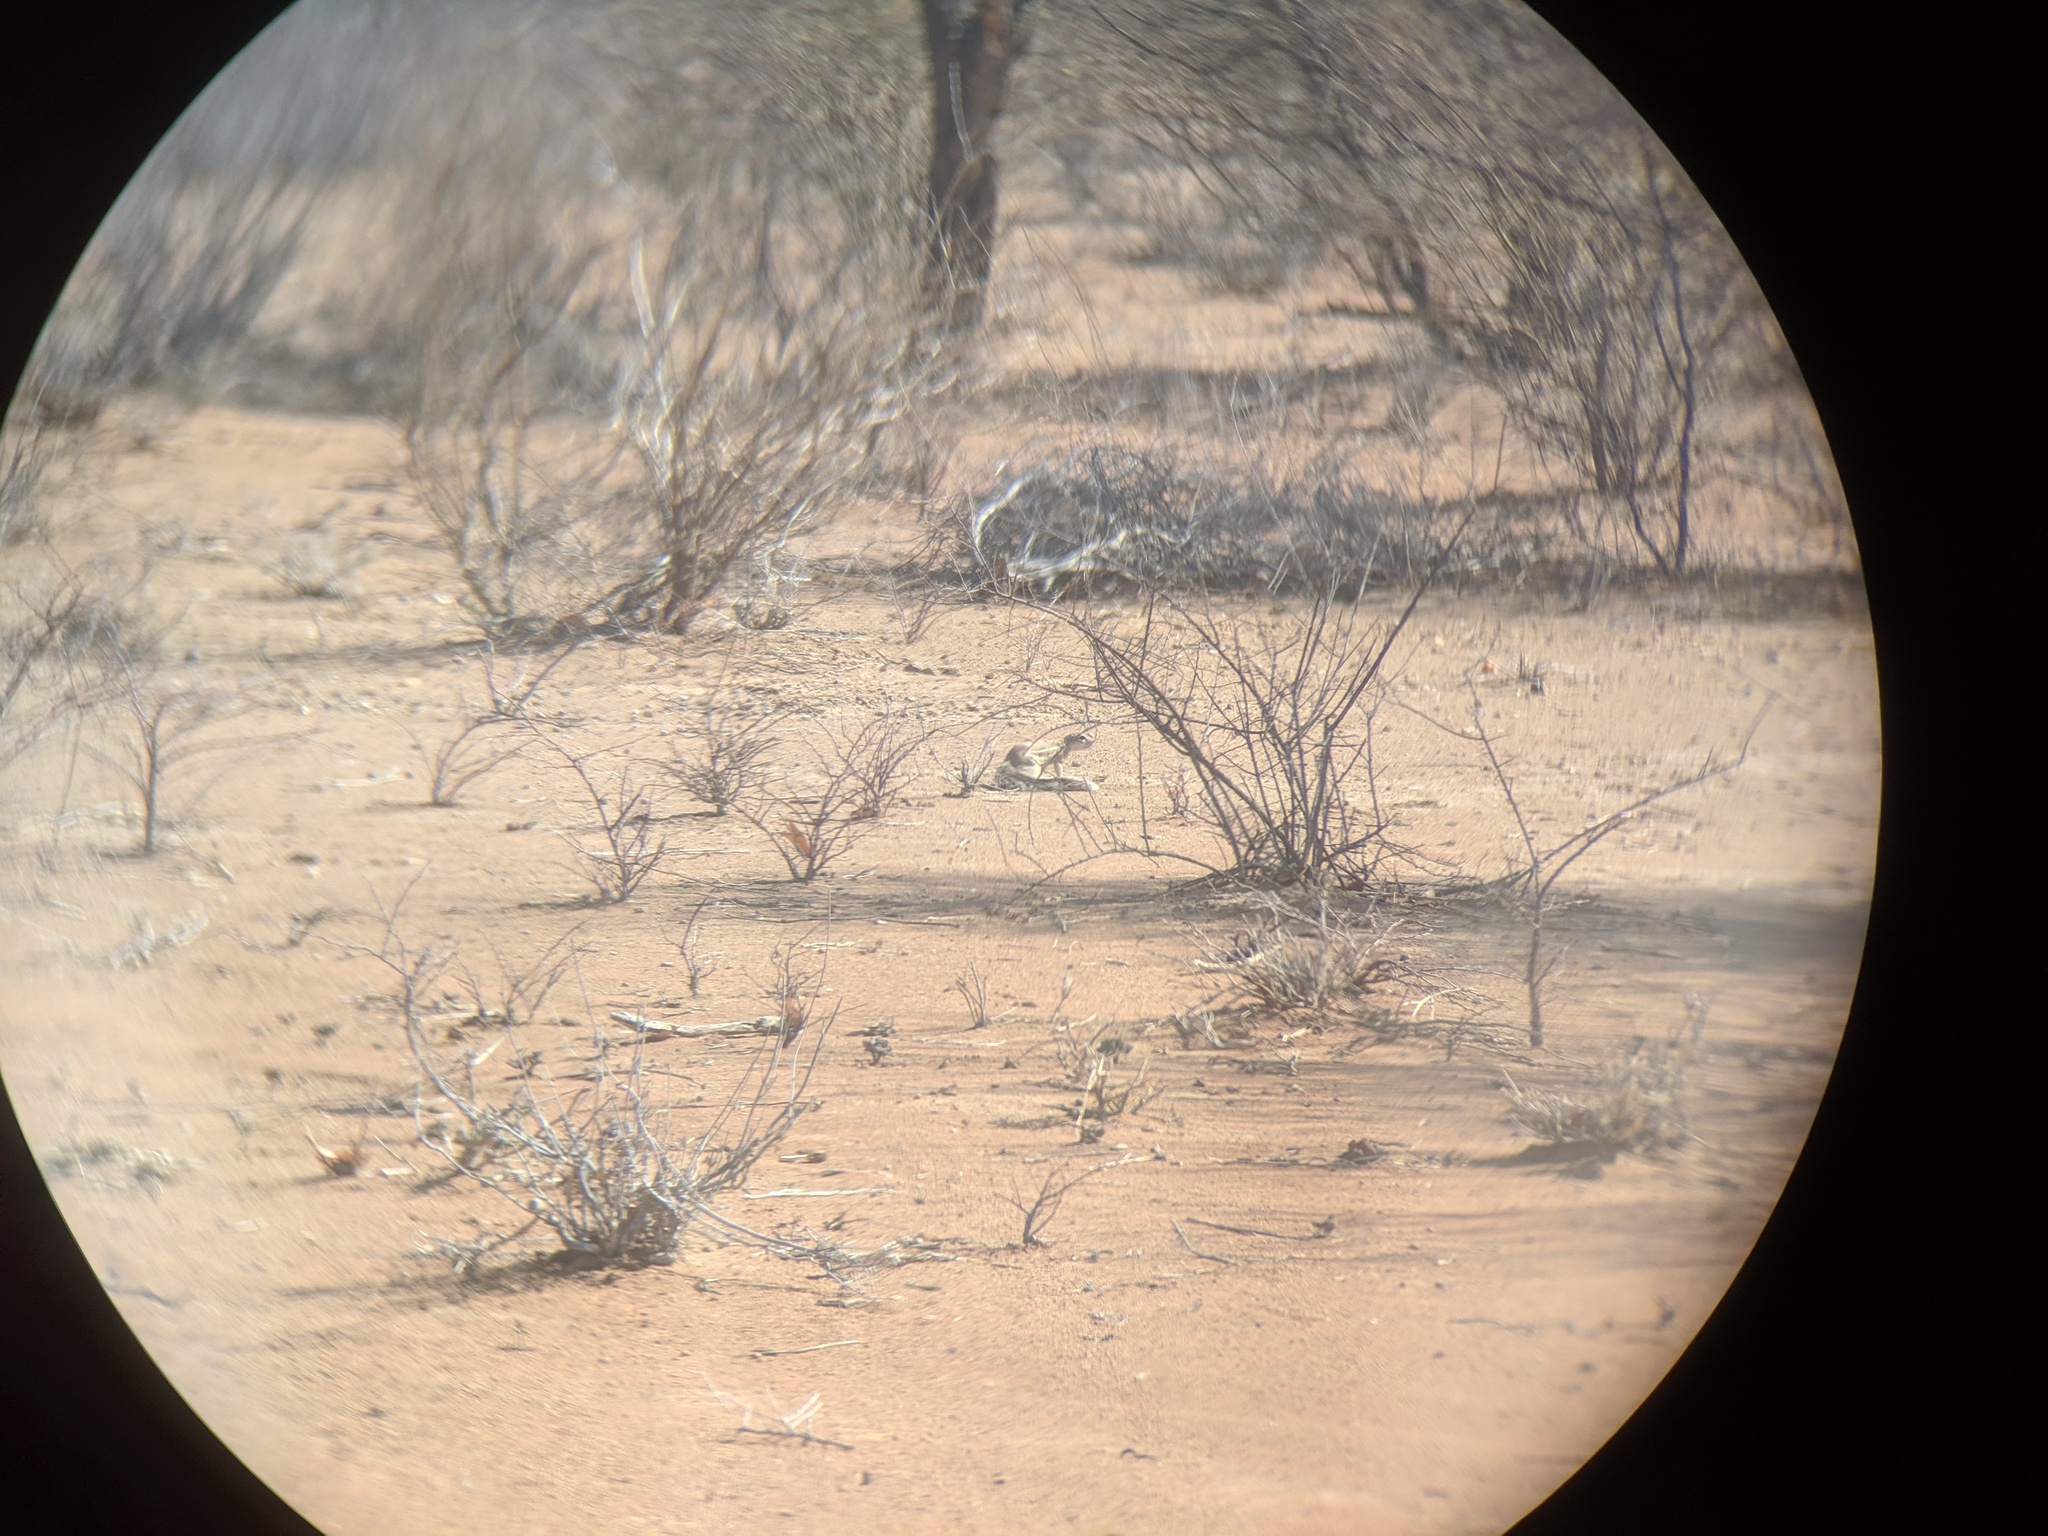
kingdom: Animalia
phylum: Chordata
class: Mammalia
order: Rodentia
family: Sciuridae
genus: Xerus
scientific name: Xerus princeps
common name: Damara ground squirrel
